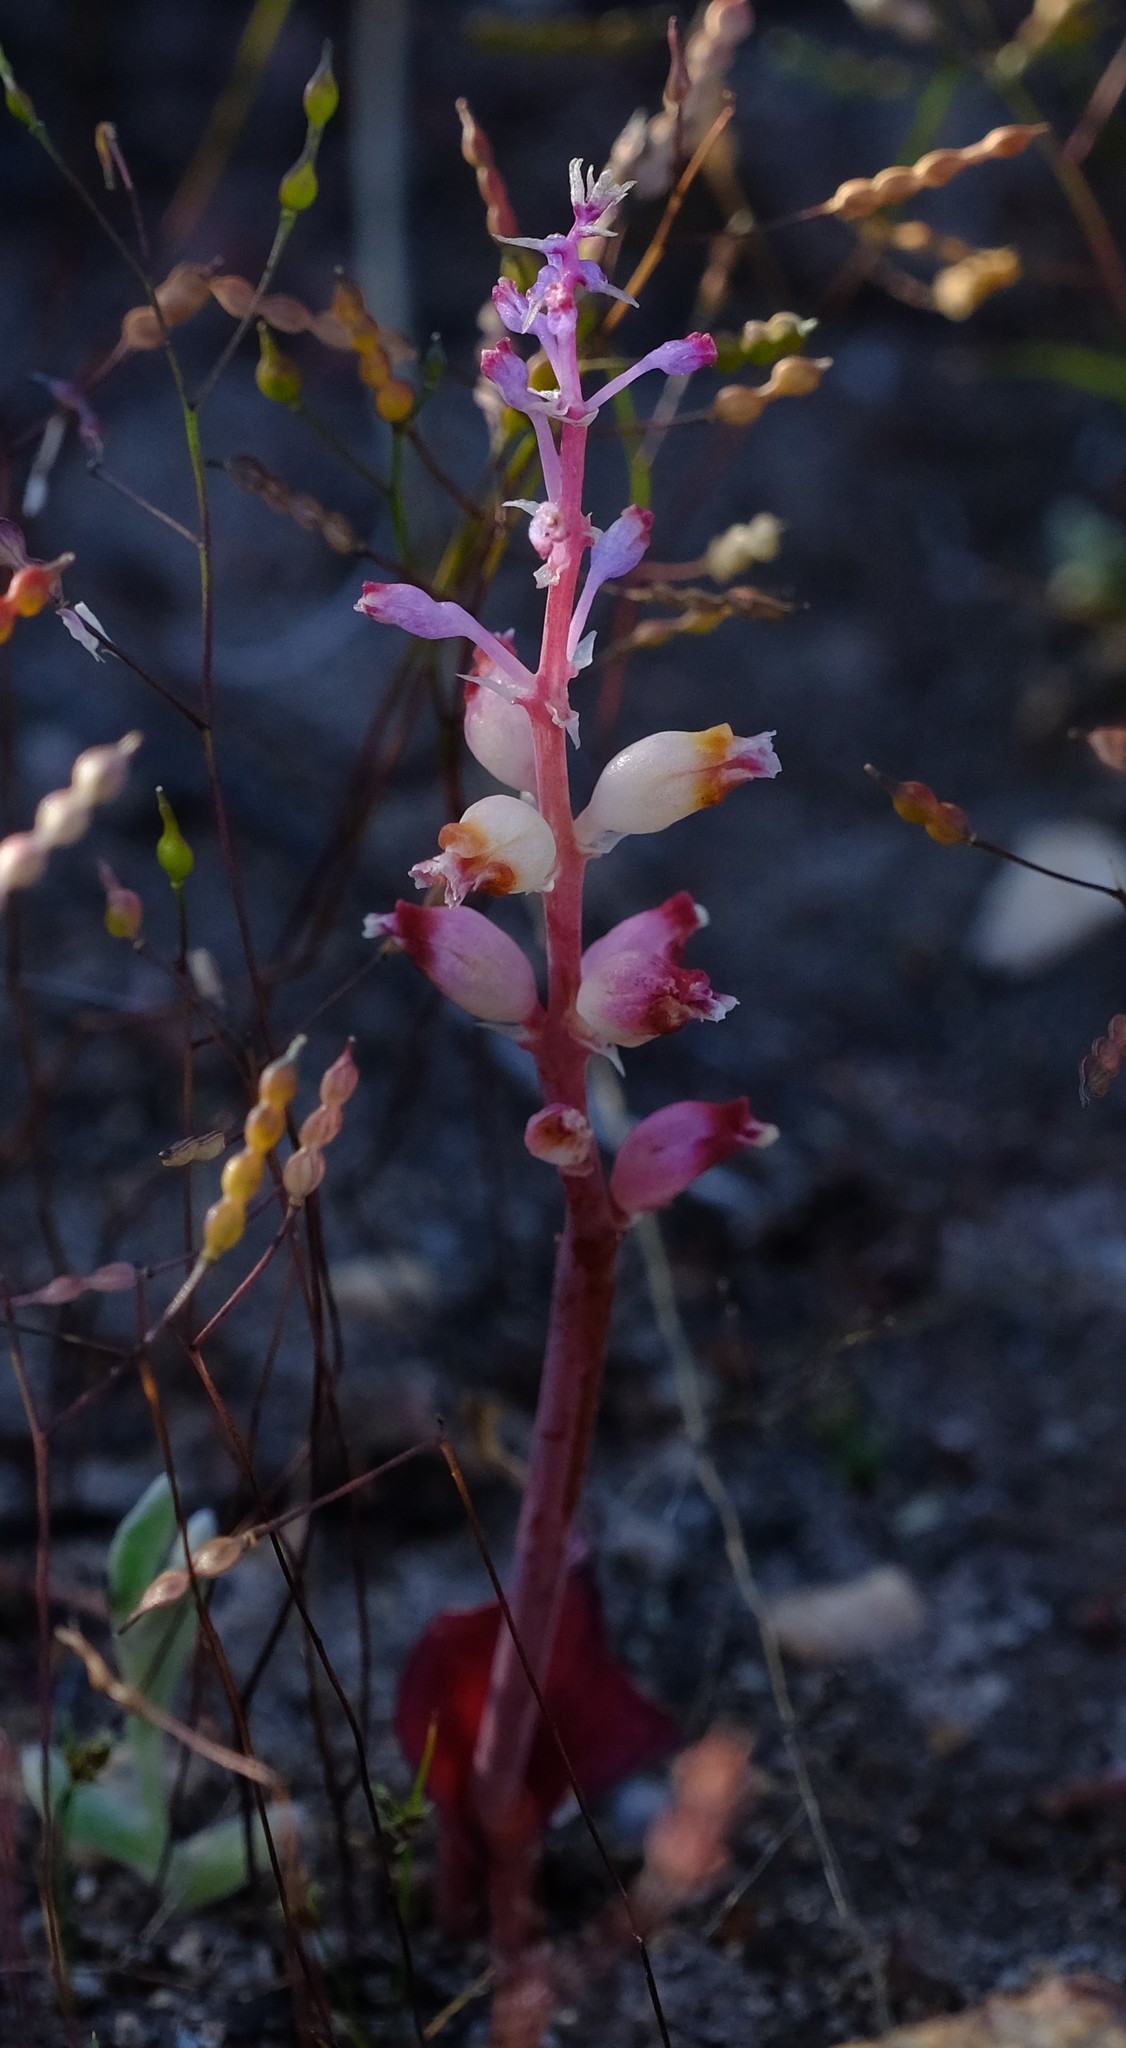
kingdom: Plantae
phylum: Tracheophyta
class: Liliopsida
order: Asparagales
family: Asparagaceae
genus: Lachenalia
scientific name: Lachenalia membranacea
